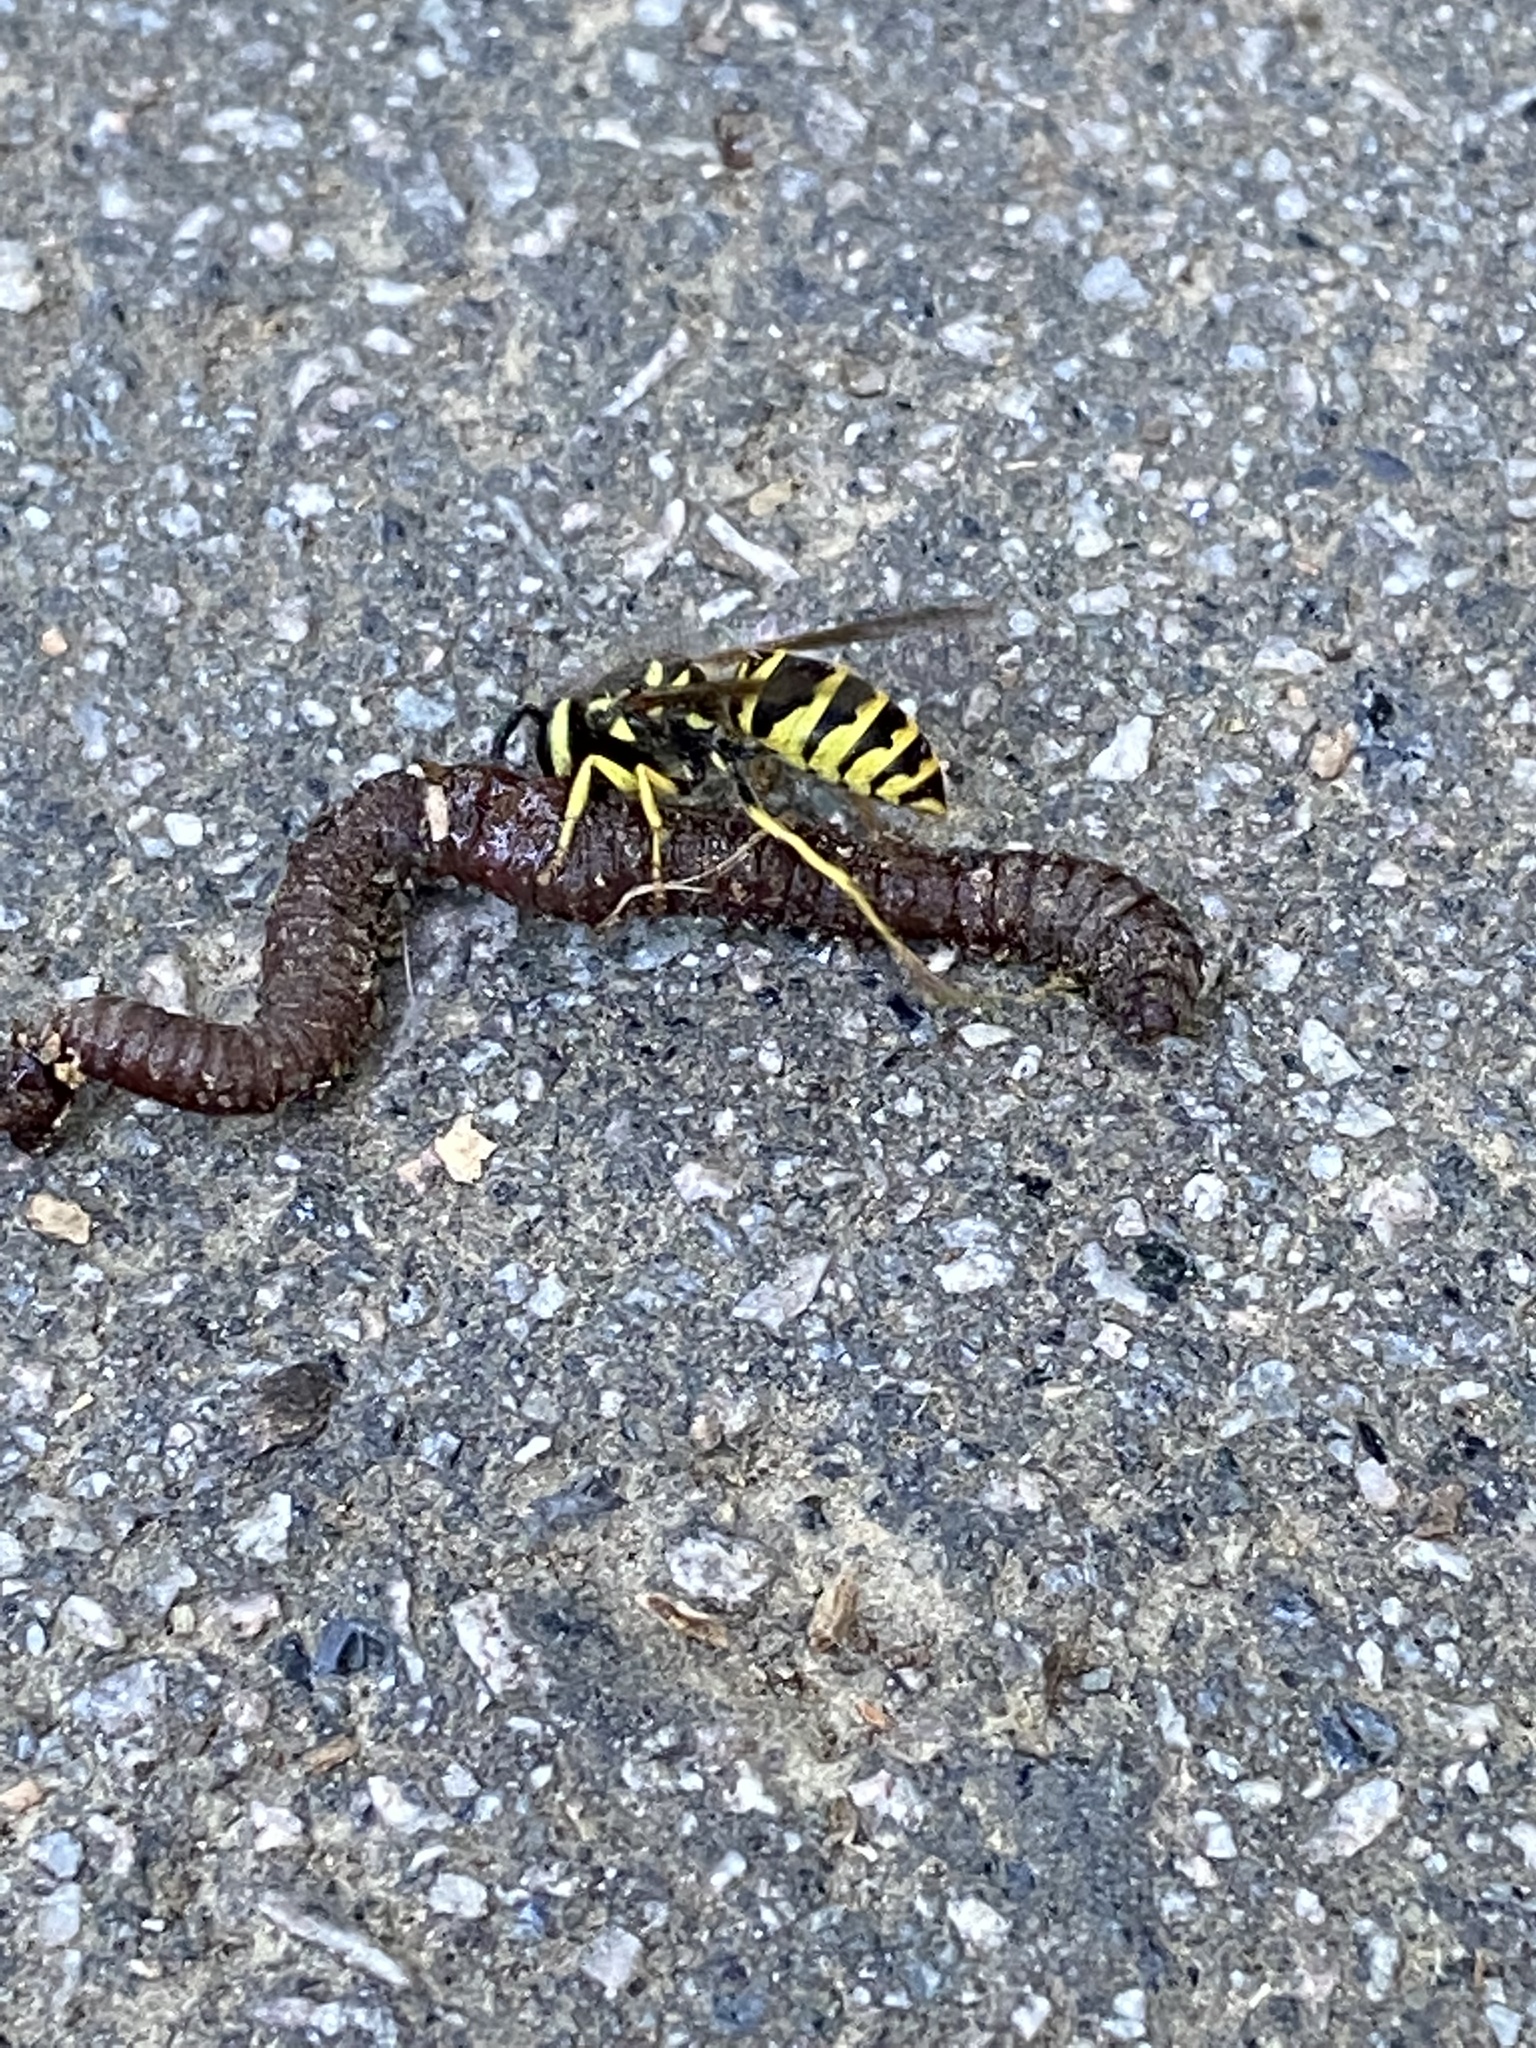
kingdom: Animalia
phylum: Arthropoda
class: Insecta
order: Hymenoptera
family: Vespidae
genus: Vespula
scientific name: Vespula maculifrons
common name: Eastern yellowjacket
